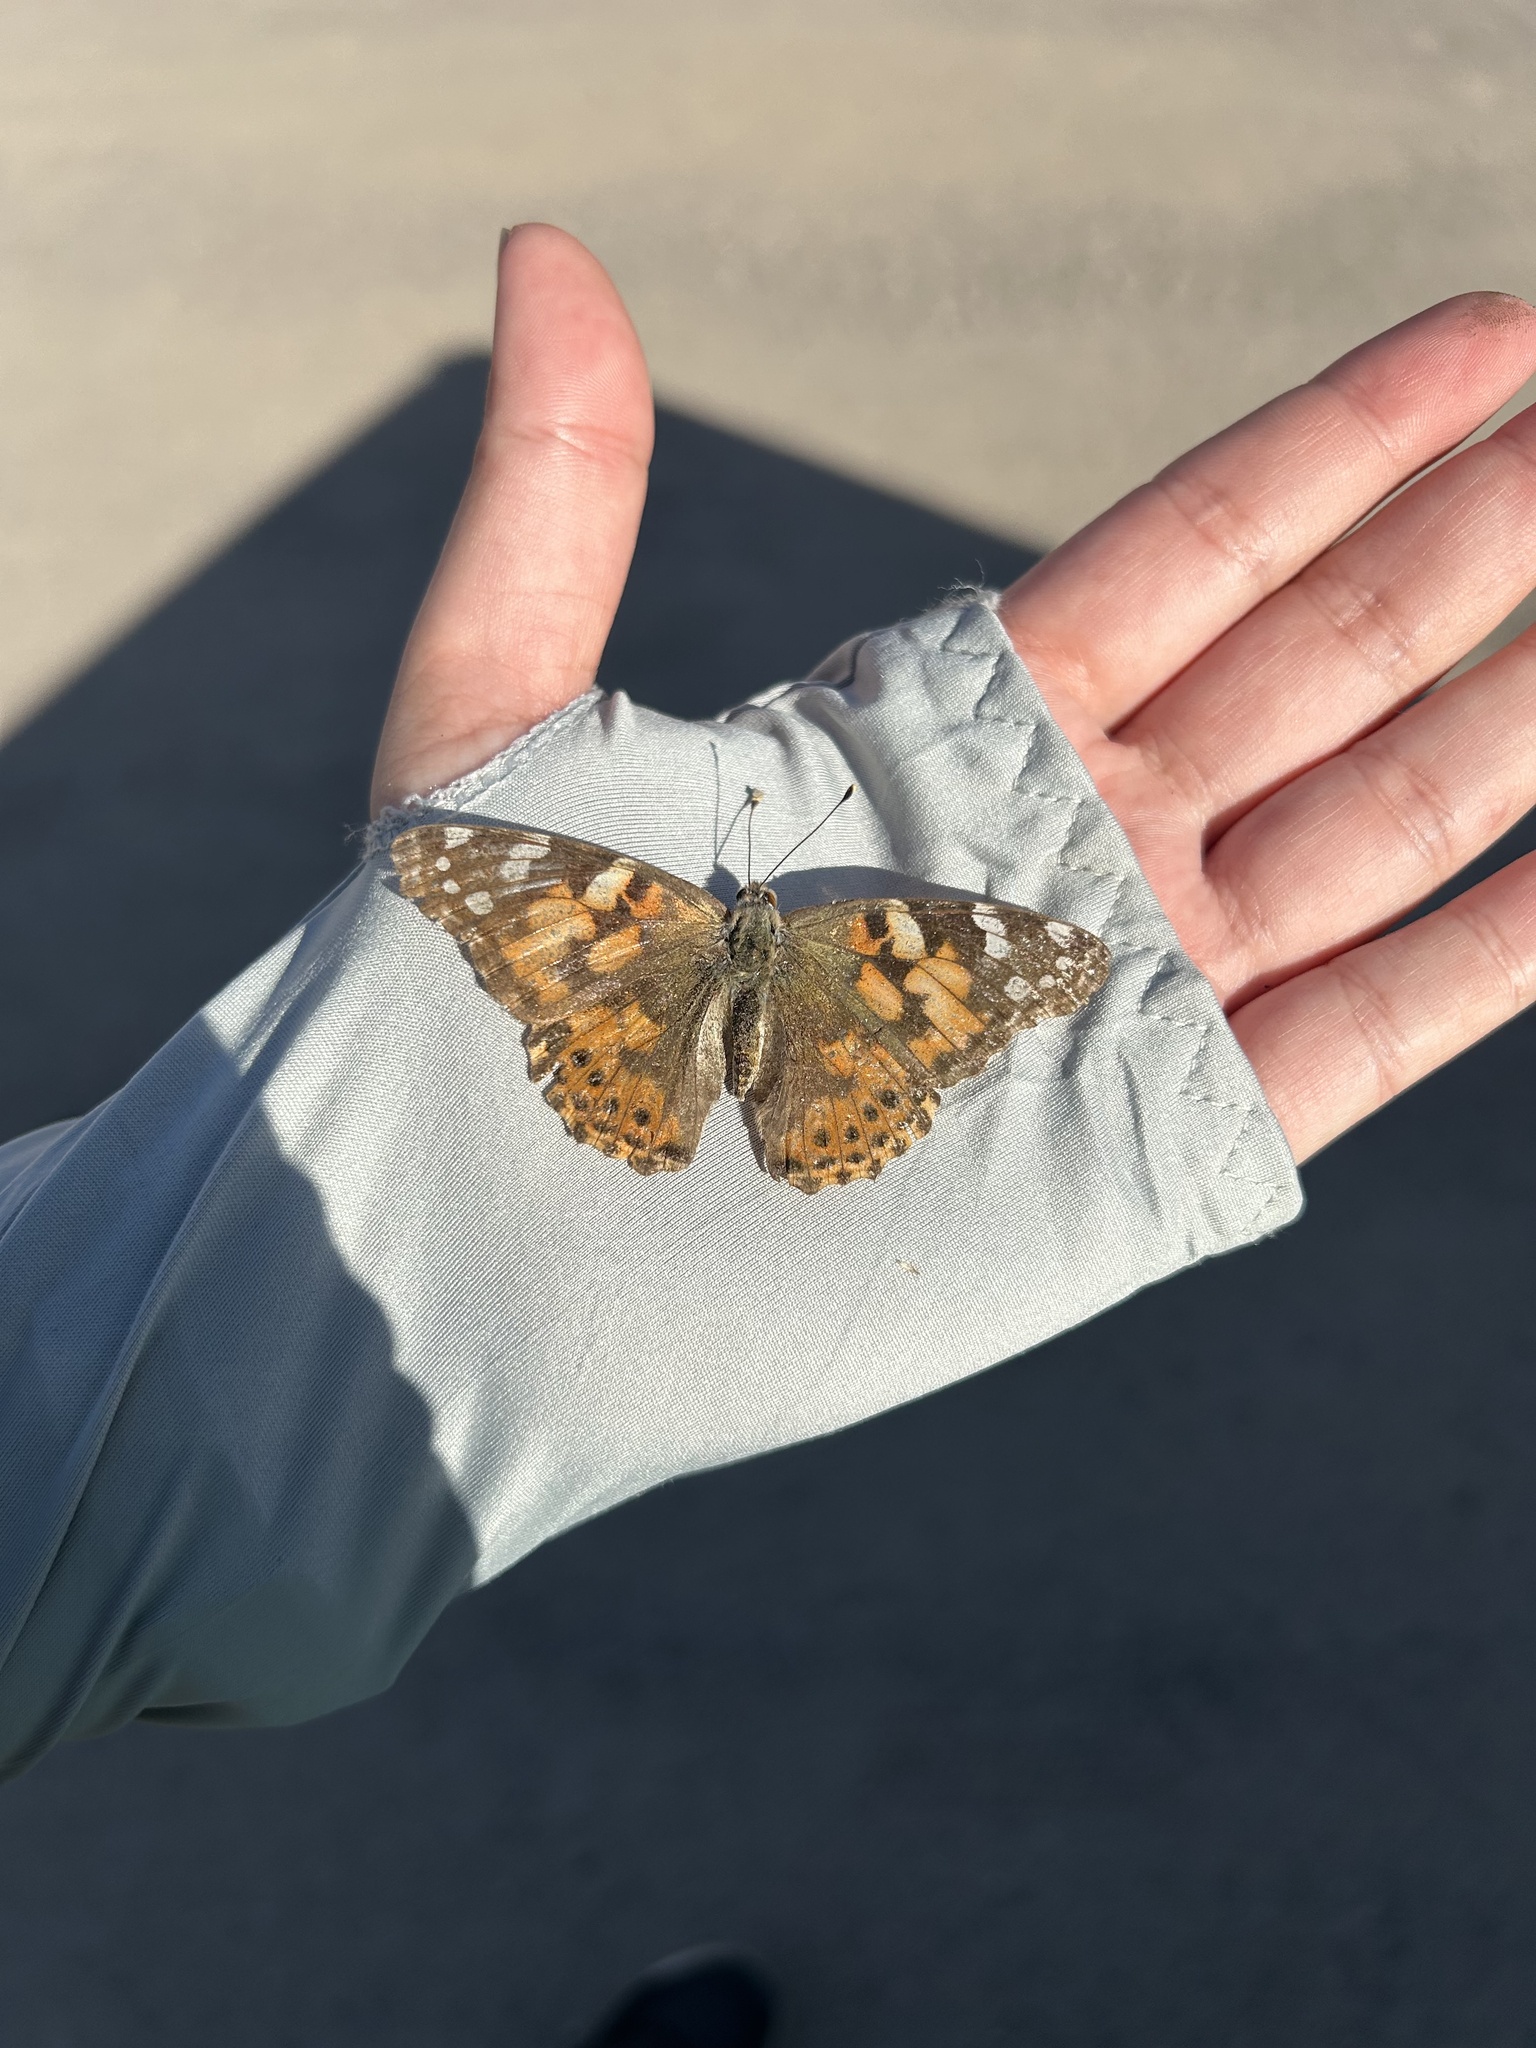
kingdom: Animalia
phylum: Arthropoda
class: Insecta
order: Lepidoptera
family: Nymphalidae
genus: Vanessa
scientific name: Vanessa cardui
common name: Painted lady
